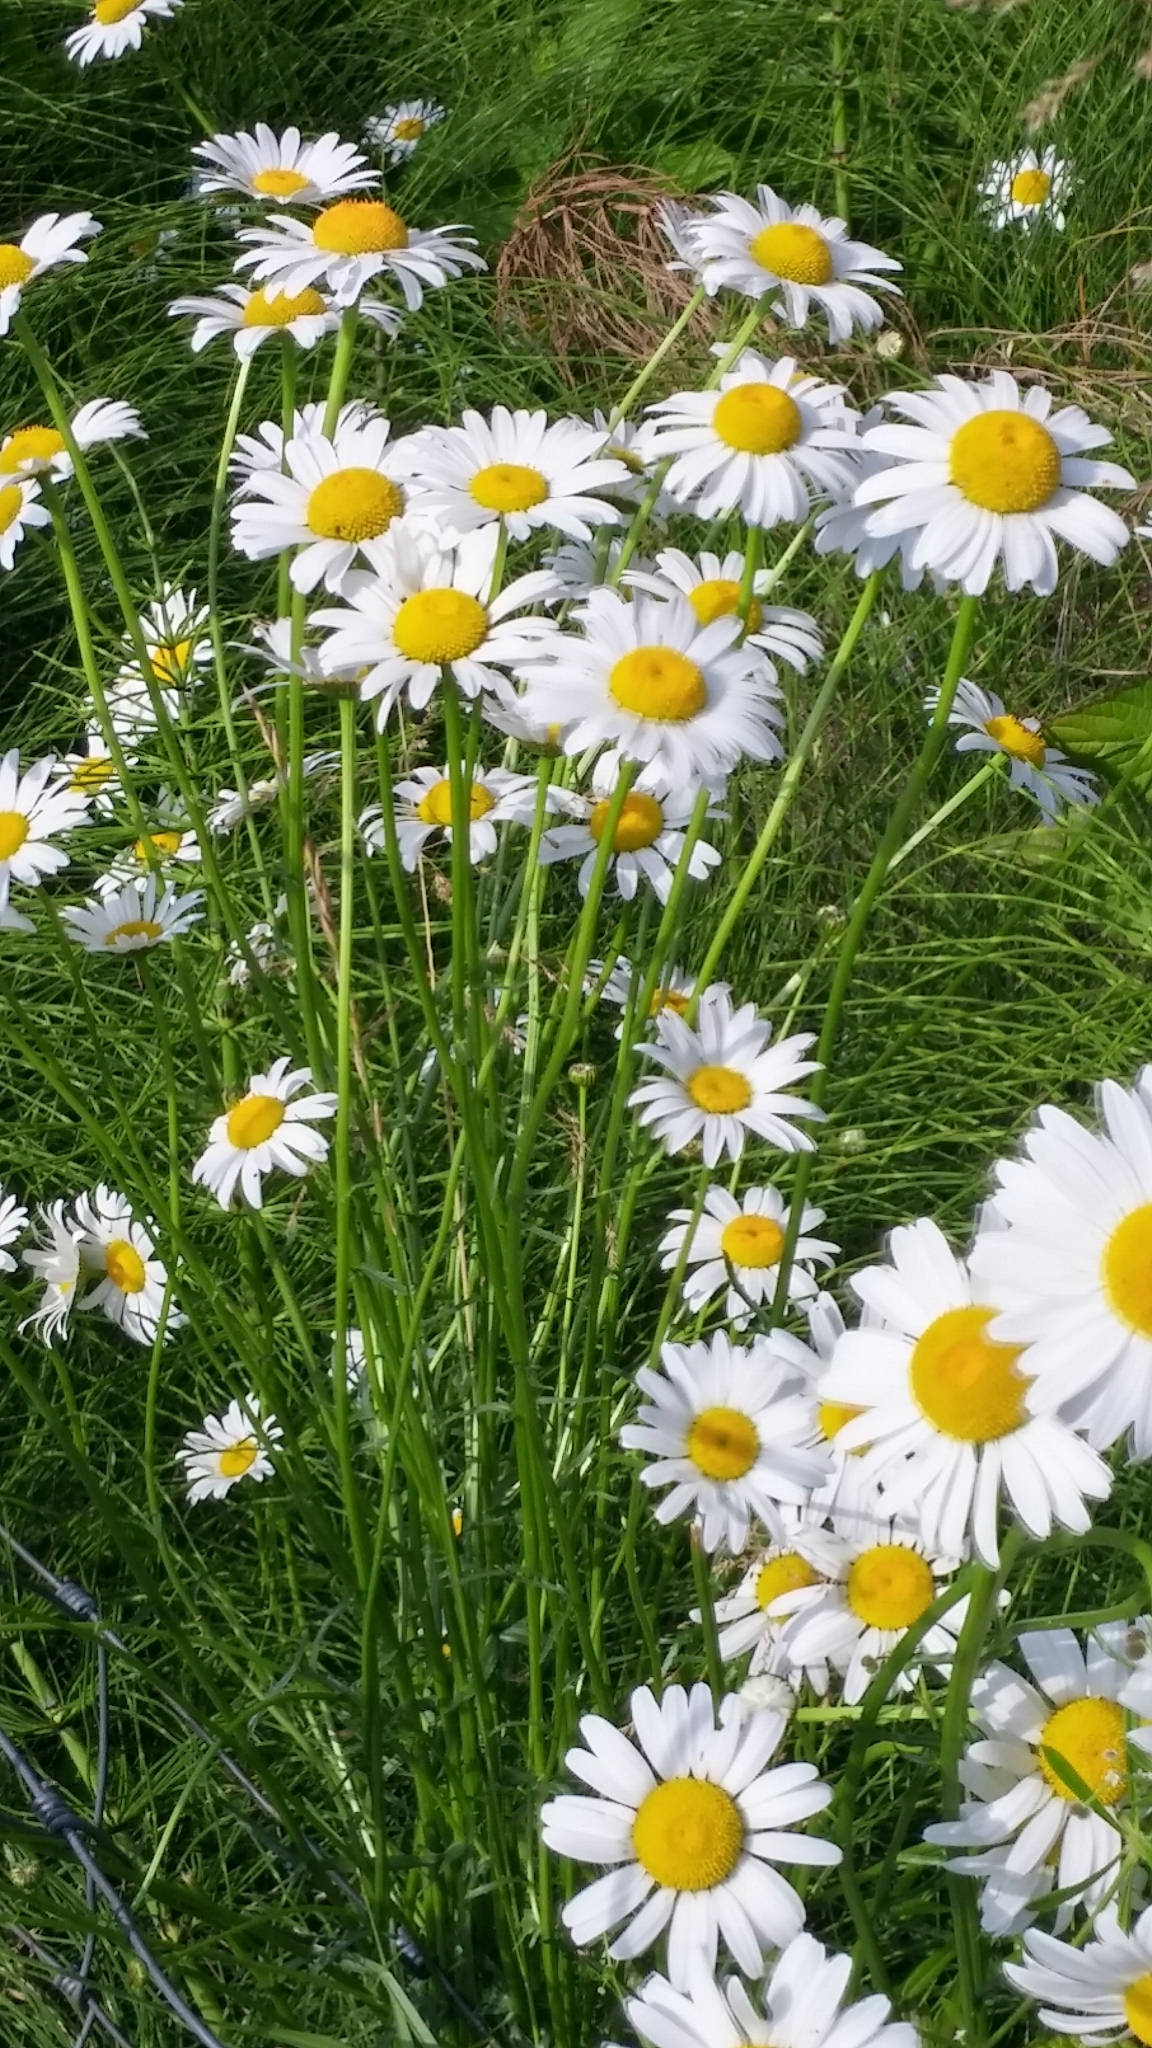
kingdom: Plantae
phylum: Tracheophyta
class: Magnoliopsida
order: Asterales
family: Asteraceae
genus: Leucanthemum
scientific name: Leucanthemum vulgare
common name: Oxeye daisy
